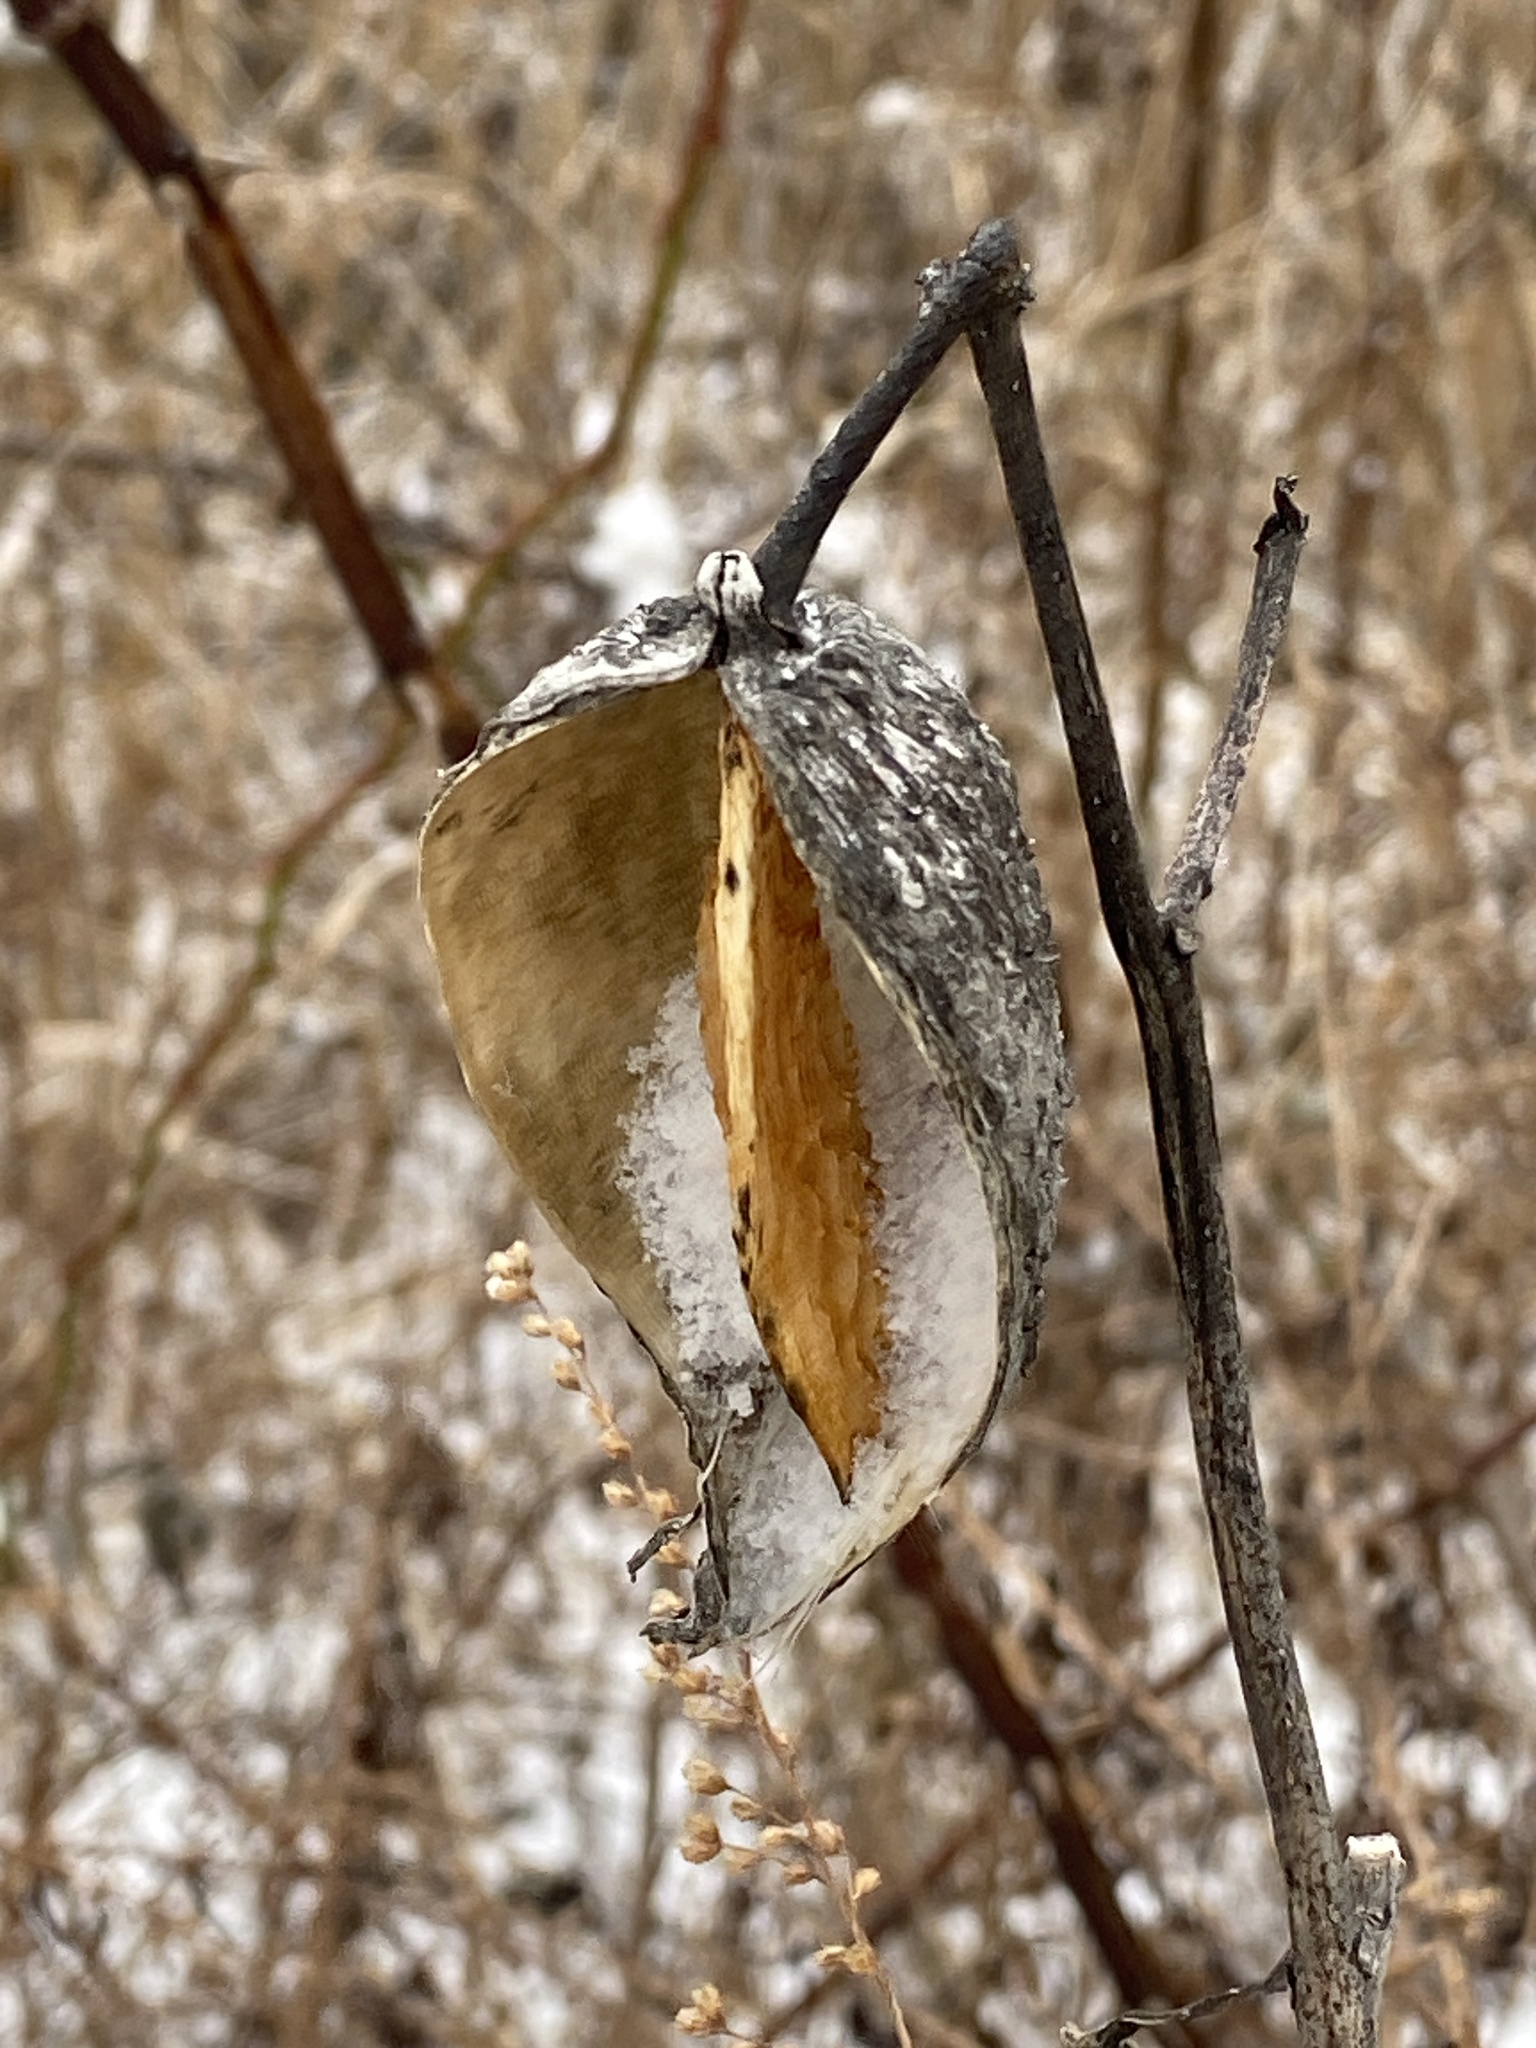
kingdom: Plantae
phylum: Tracheophyta
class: Magnoliopsida
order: Gentianales
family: Apocynaceae
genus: Asclepias
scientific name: Asclepias syriaca
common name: Common milkweed
